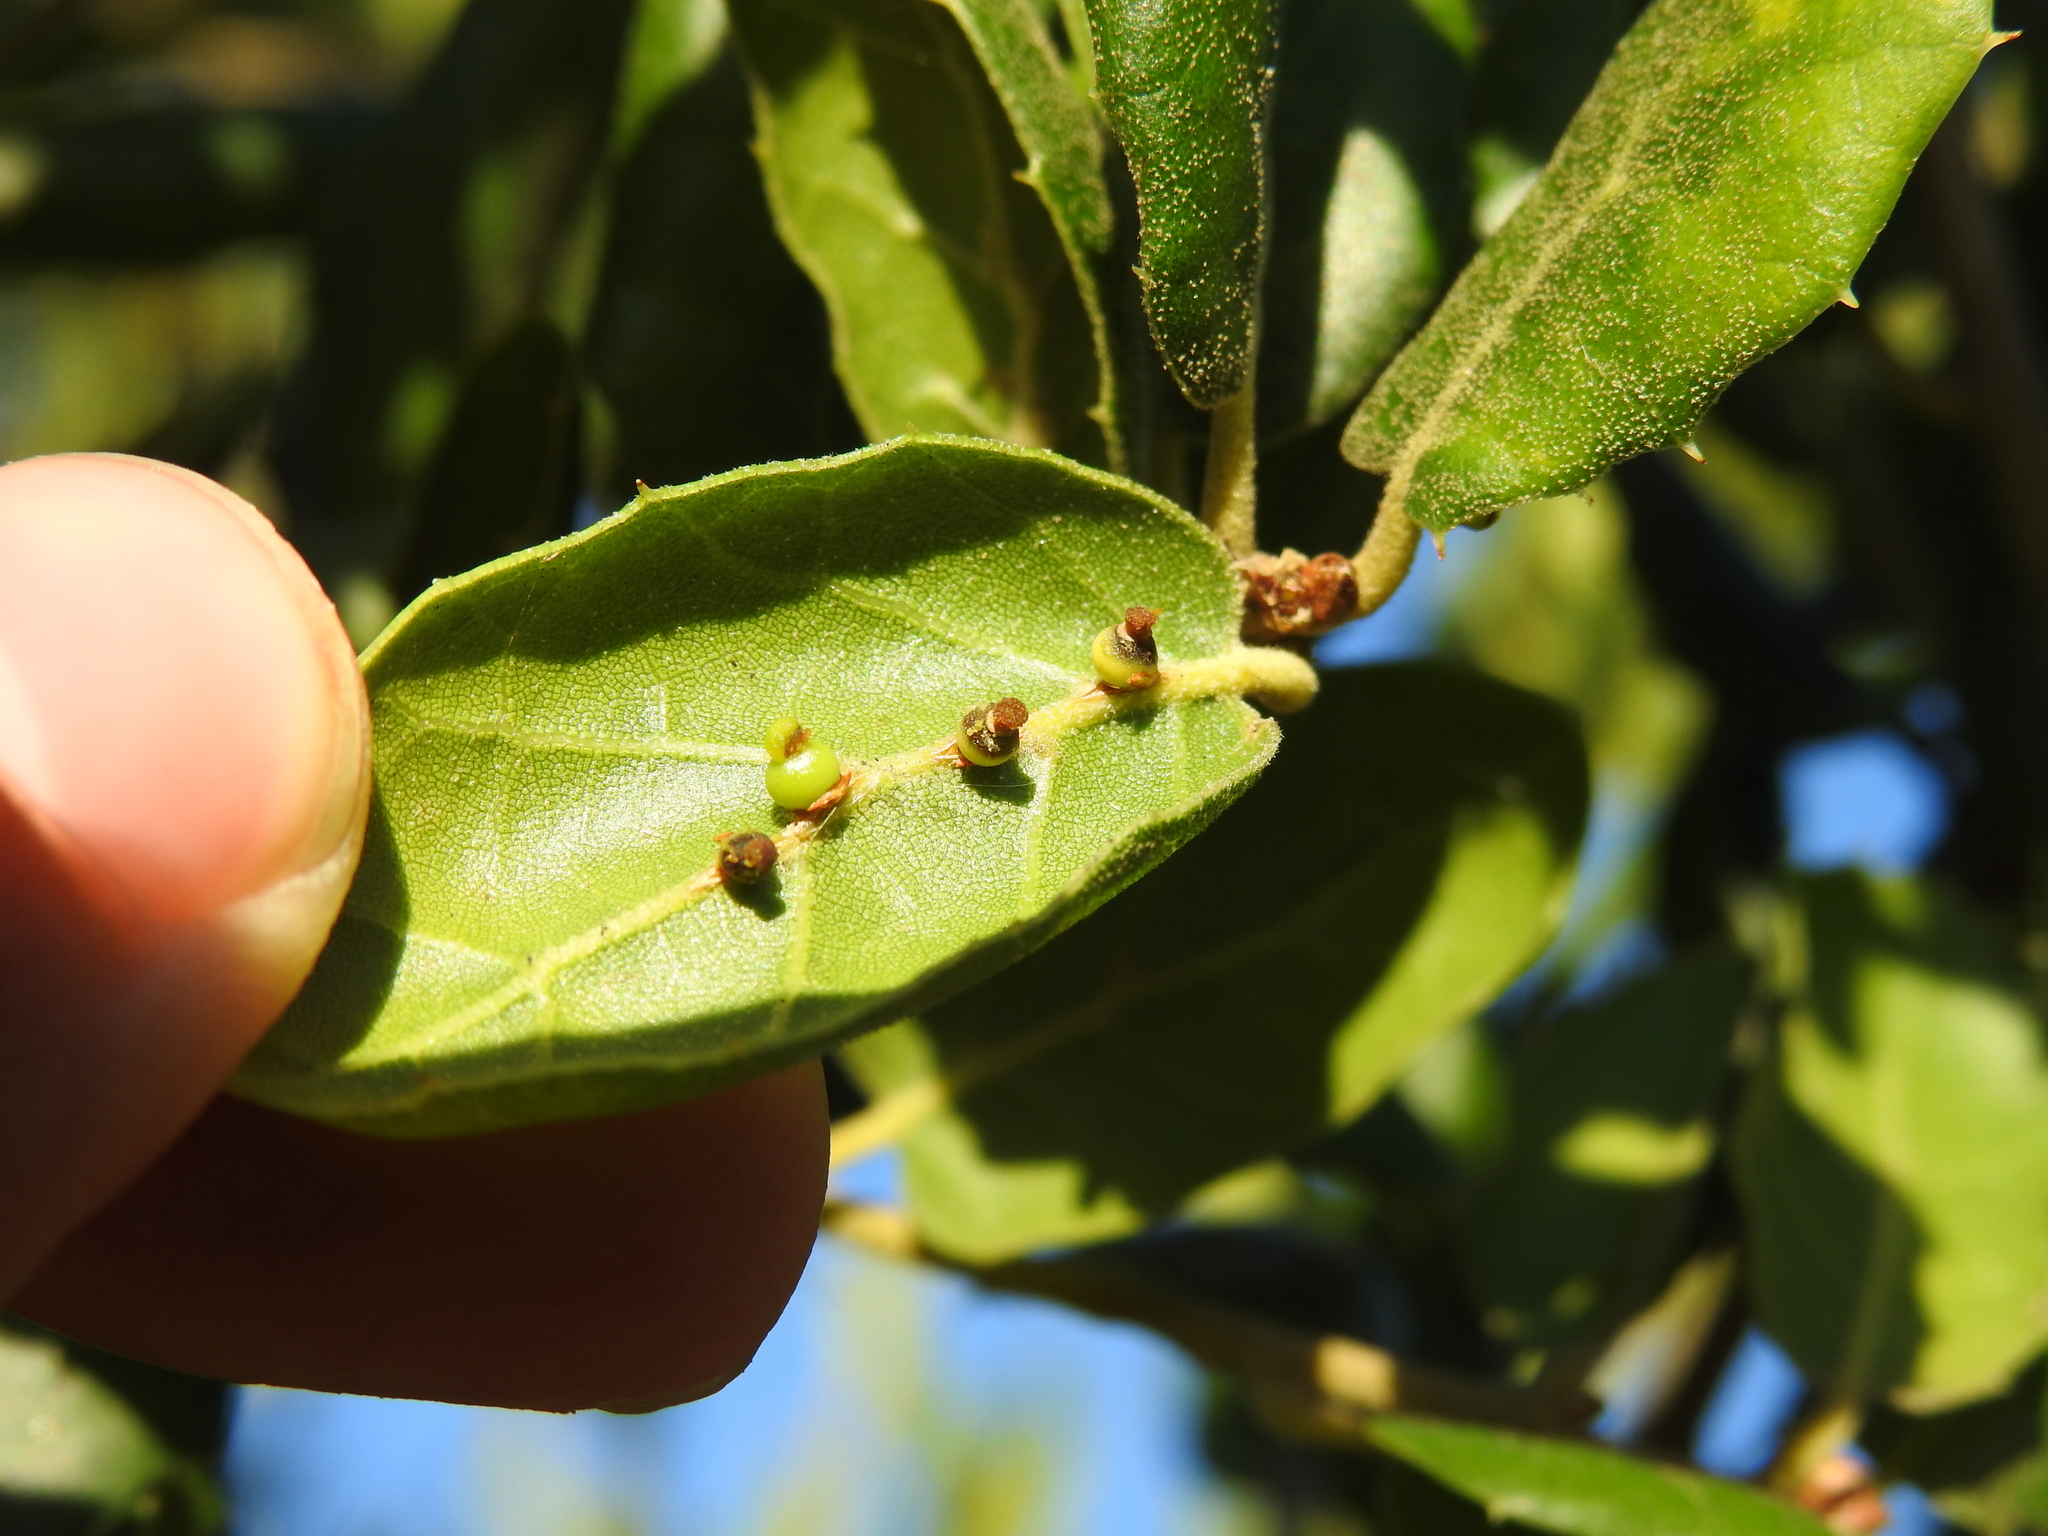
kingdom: Animalia
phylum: Arthropoda
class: Insecta
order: Hymenoptera
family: Cynipidae
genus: Callirhytis
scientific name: Callirhytis
